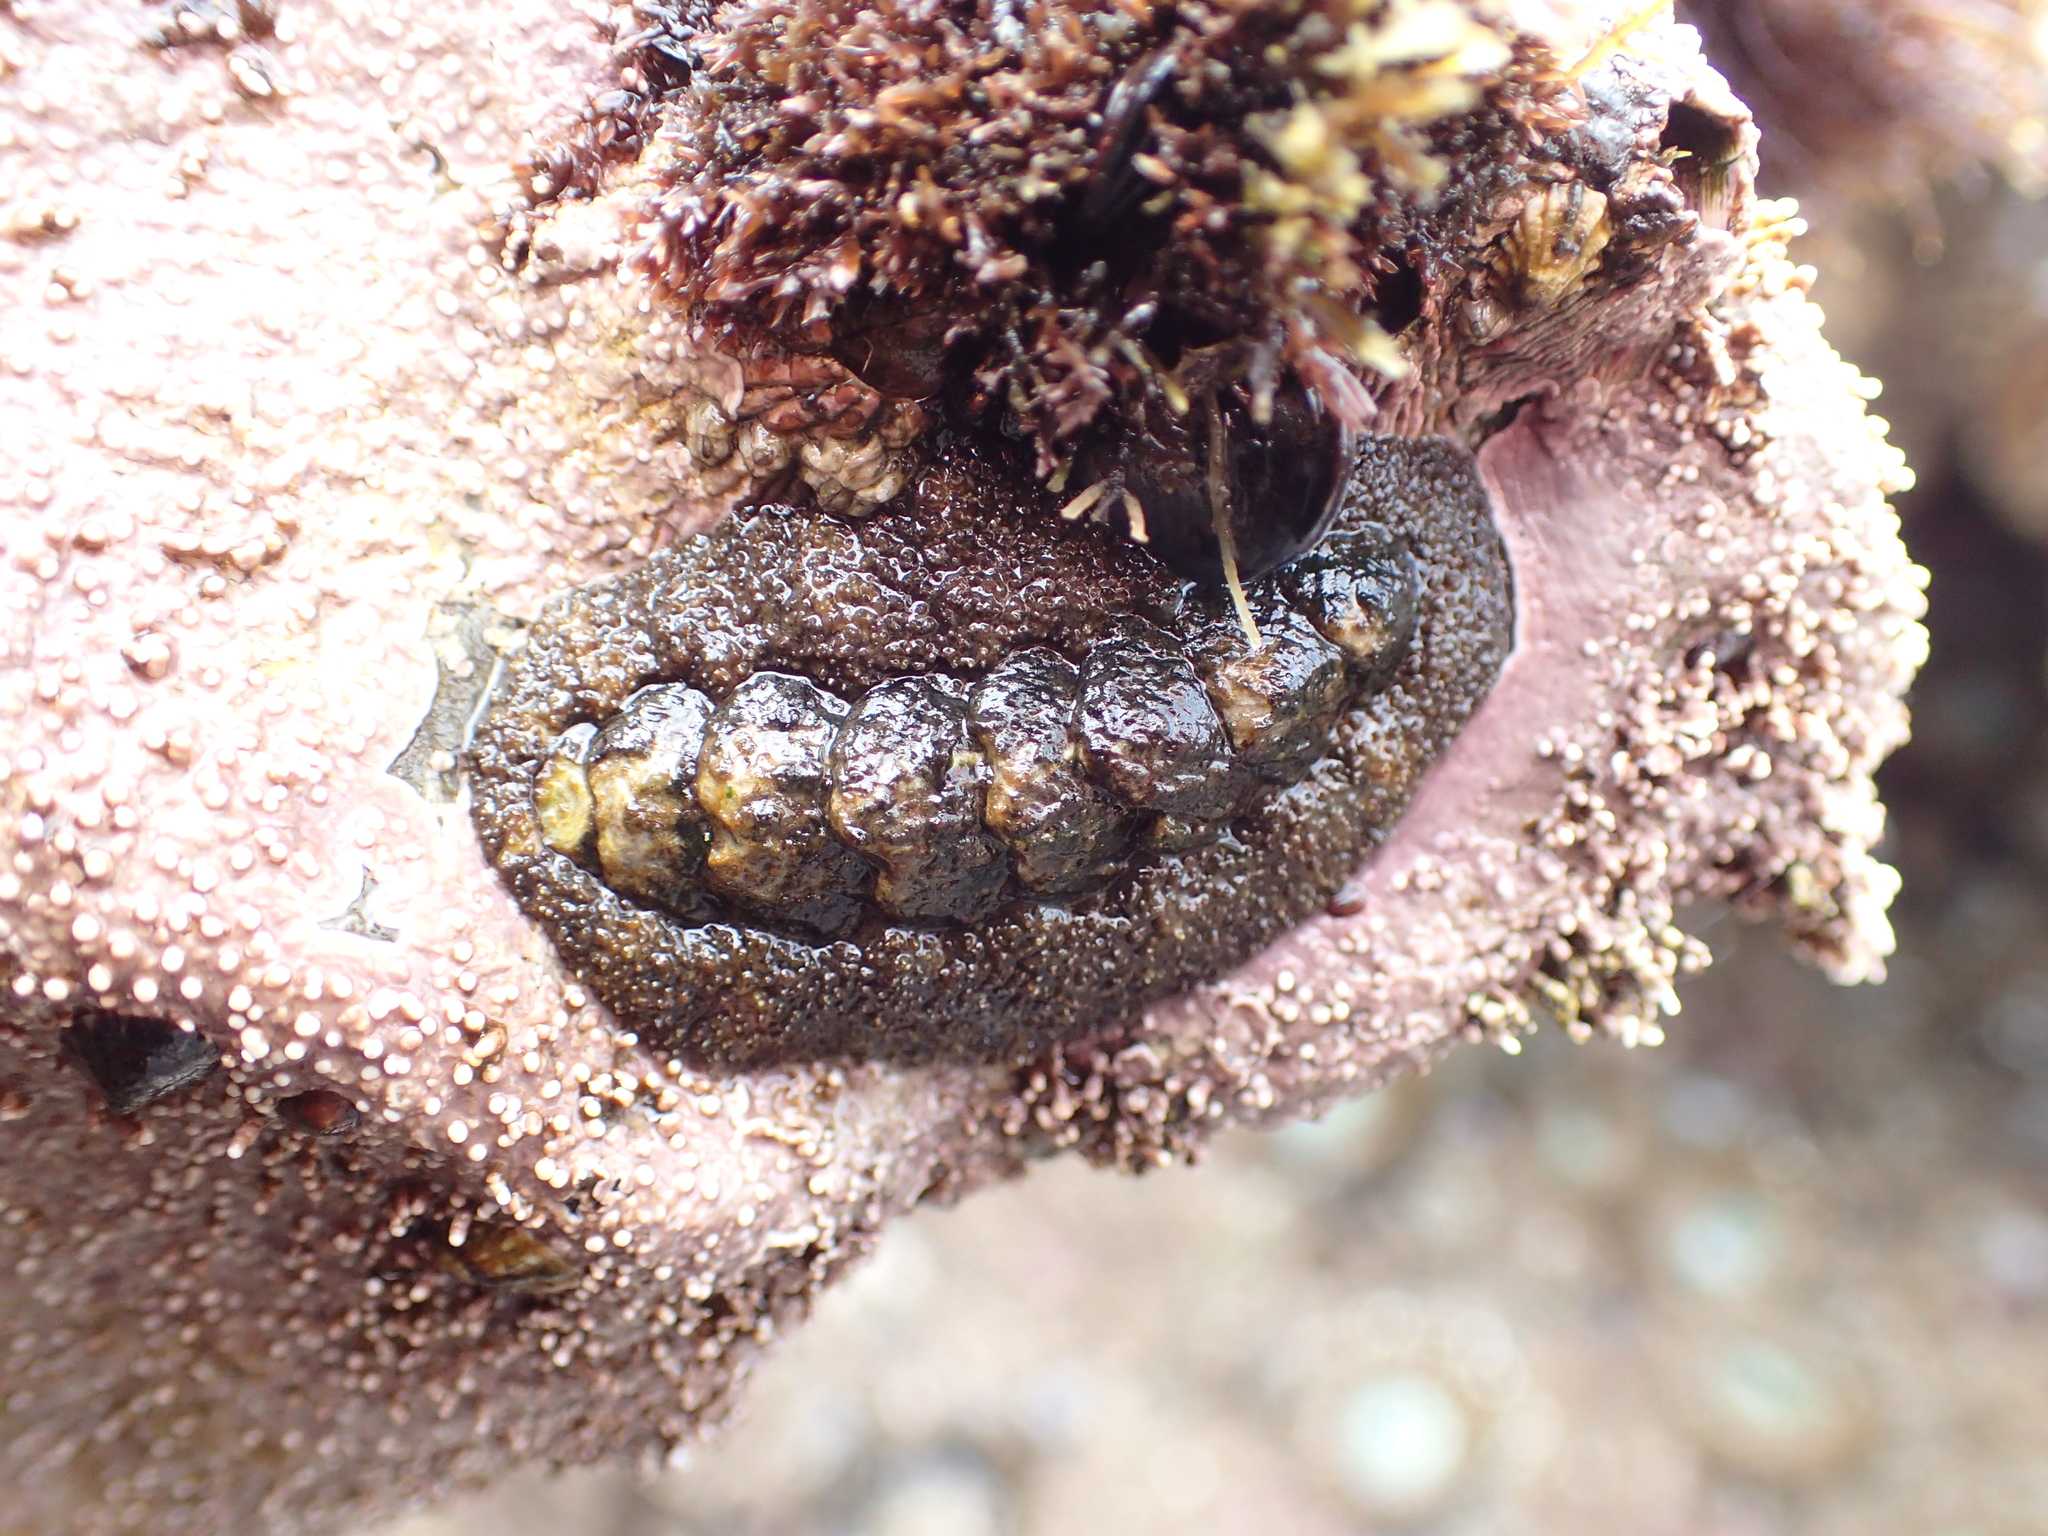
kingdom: Animalia
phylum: Mollusca
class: Polyplacophora
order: Chitonida
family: Tonicellidae
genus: Nuttallina
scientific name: Nuttallina californica
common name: California nuttall chiton
